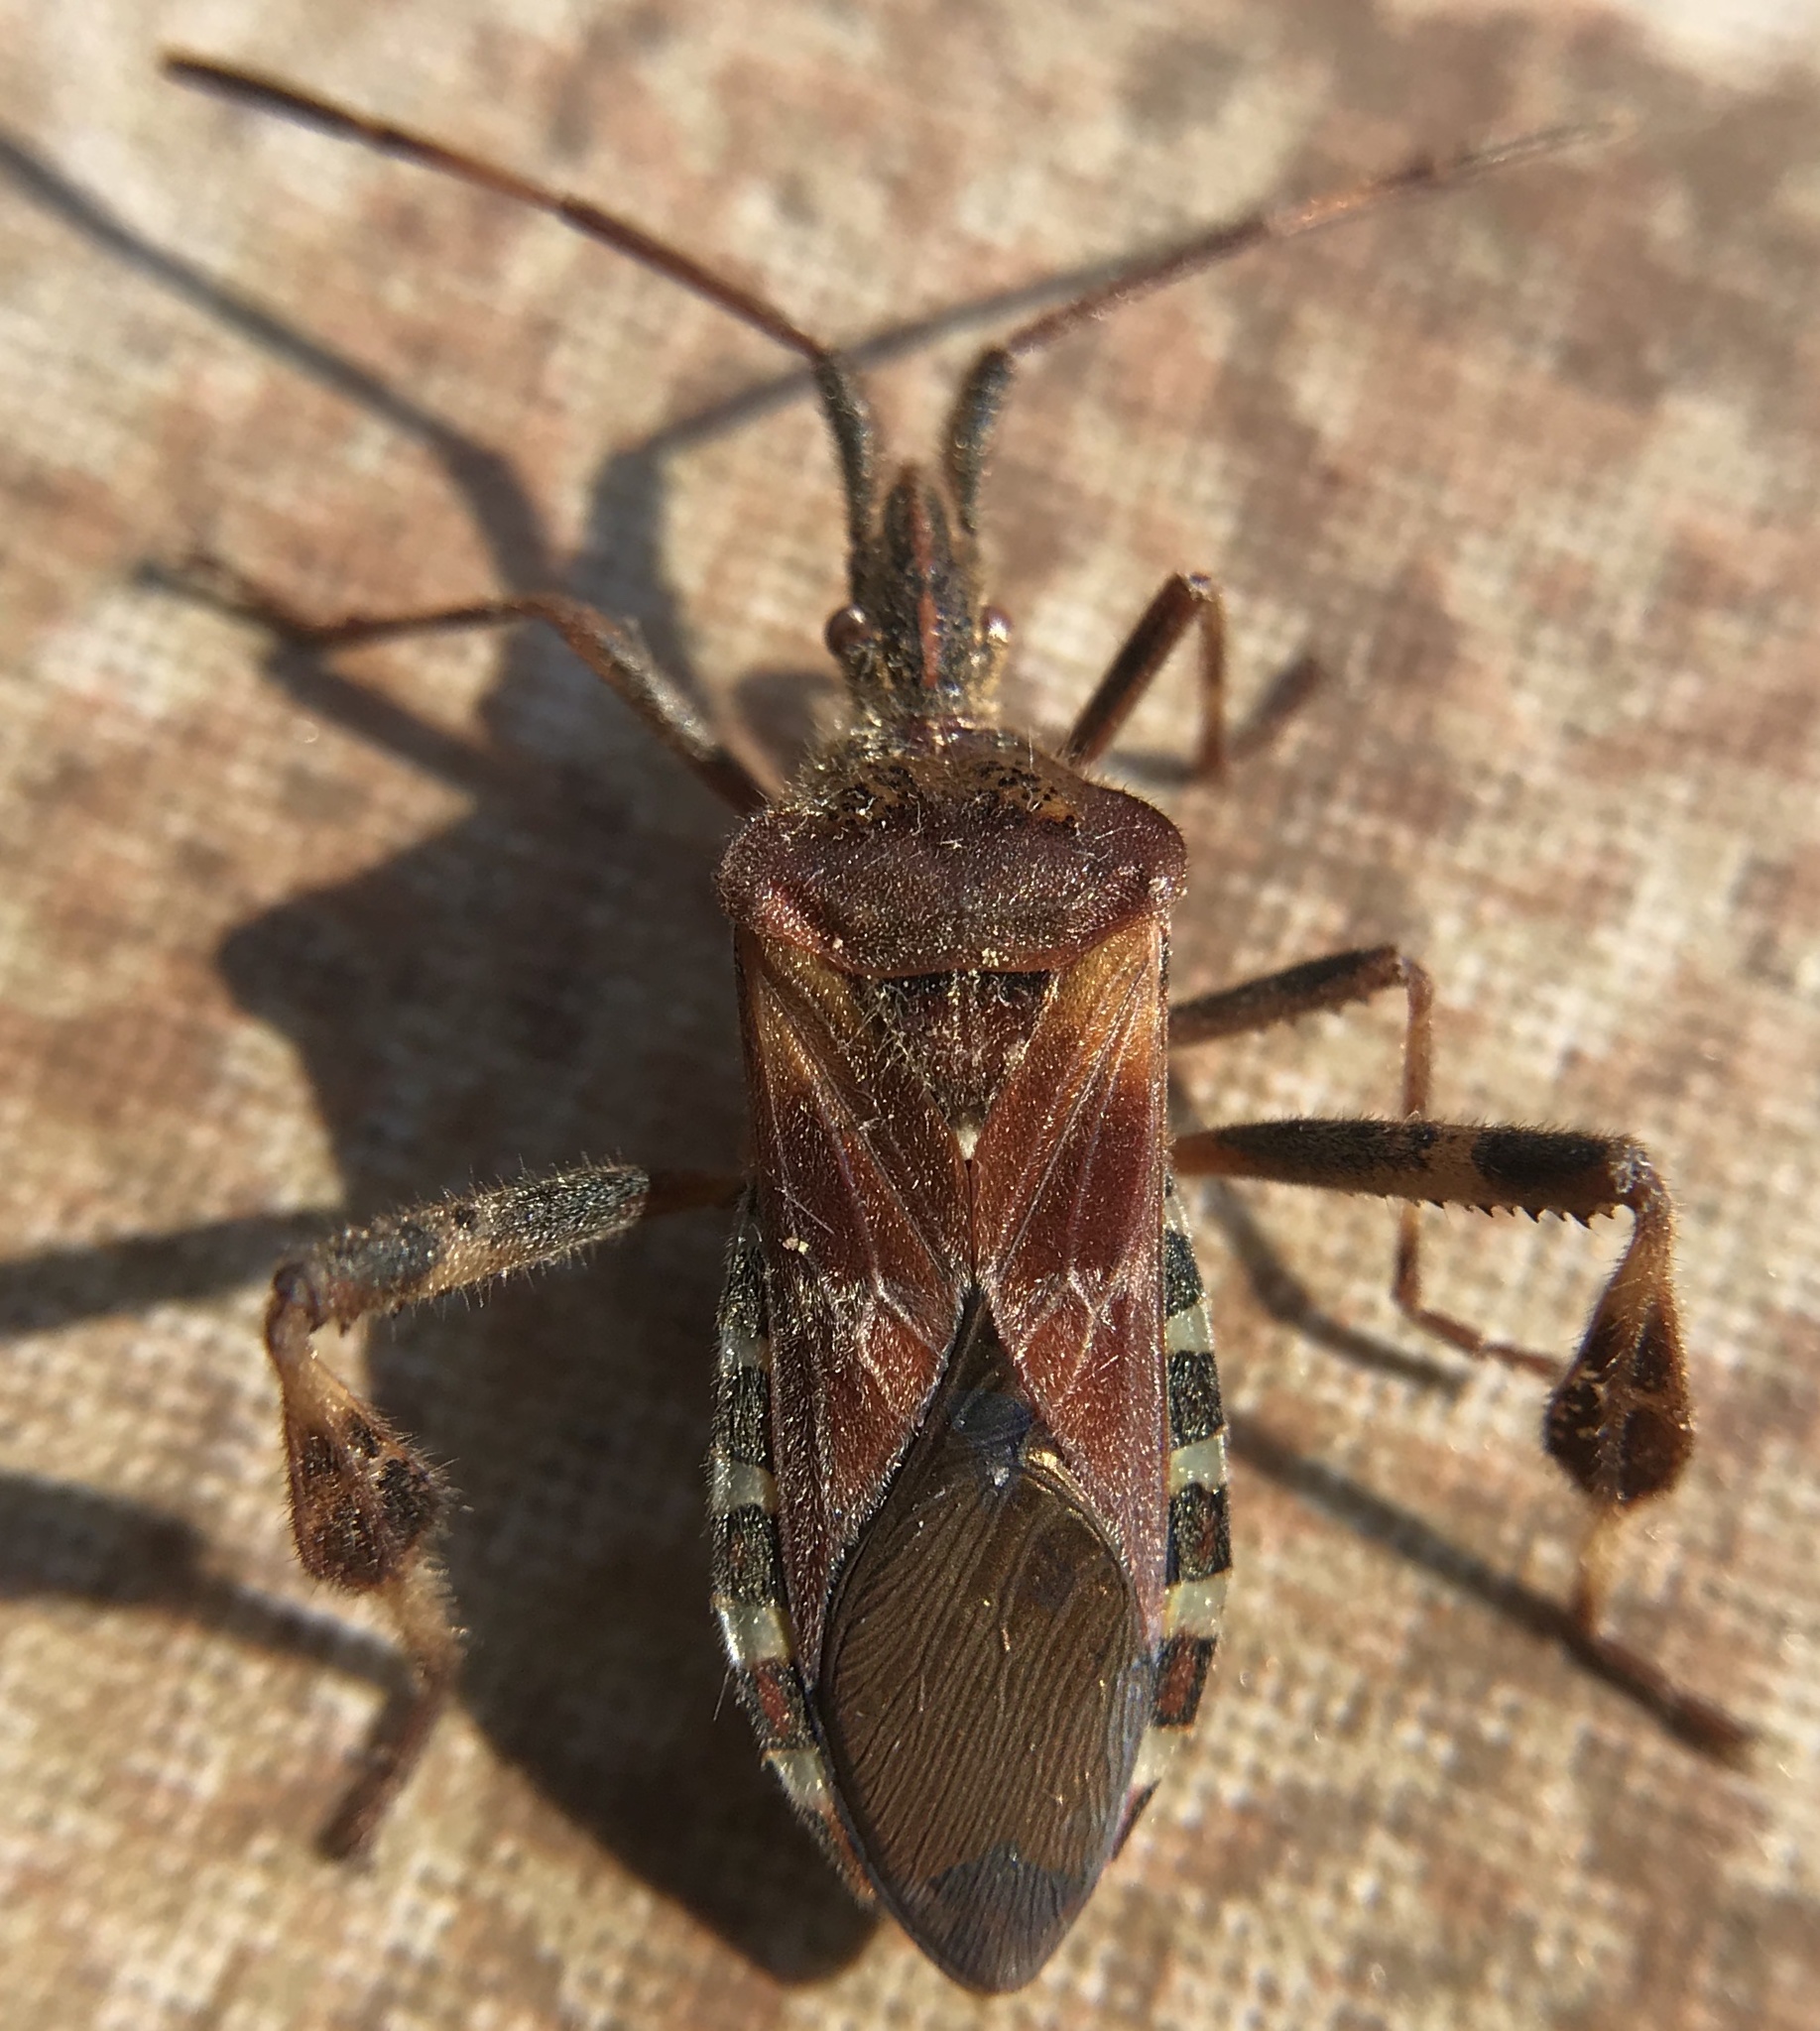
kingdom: Animalia
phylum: Arthropoda
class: Insecta
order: Hemiptera
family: Coreidae
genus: Leptoglossus
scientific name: Leptoglossus occidentalis
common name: Western conifer-seed bug
